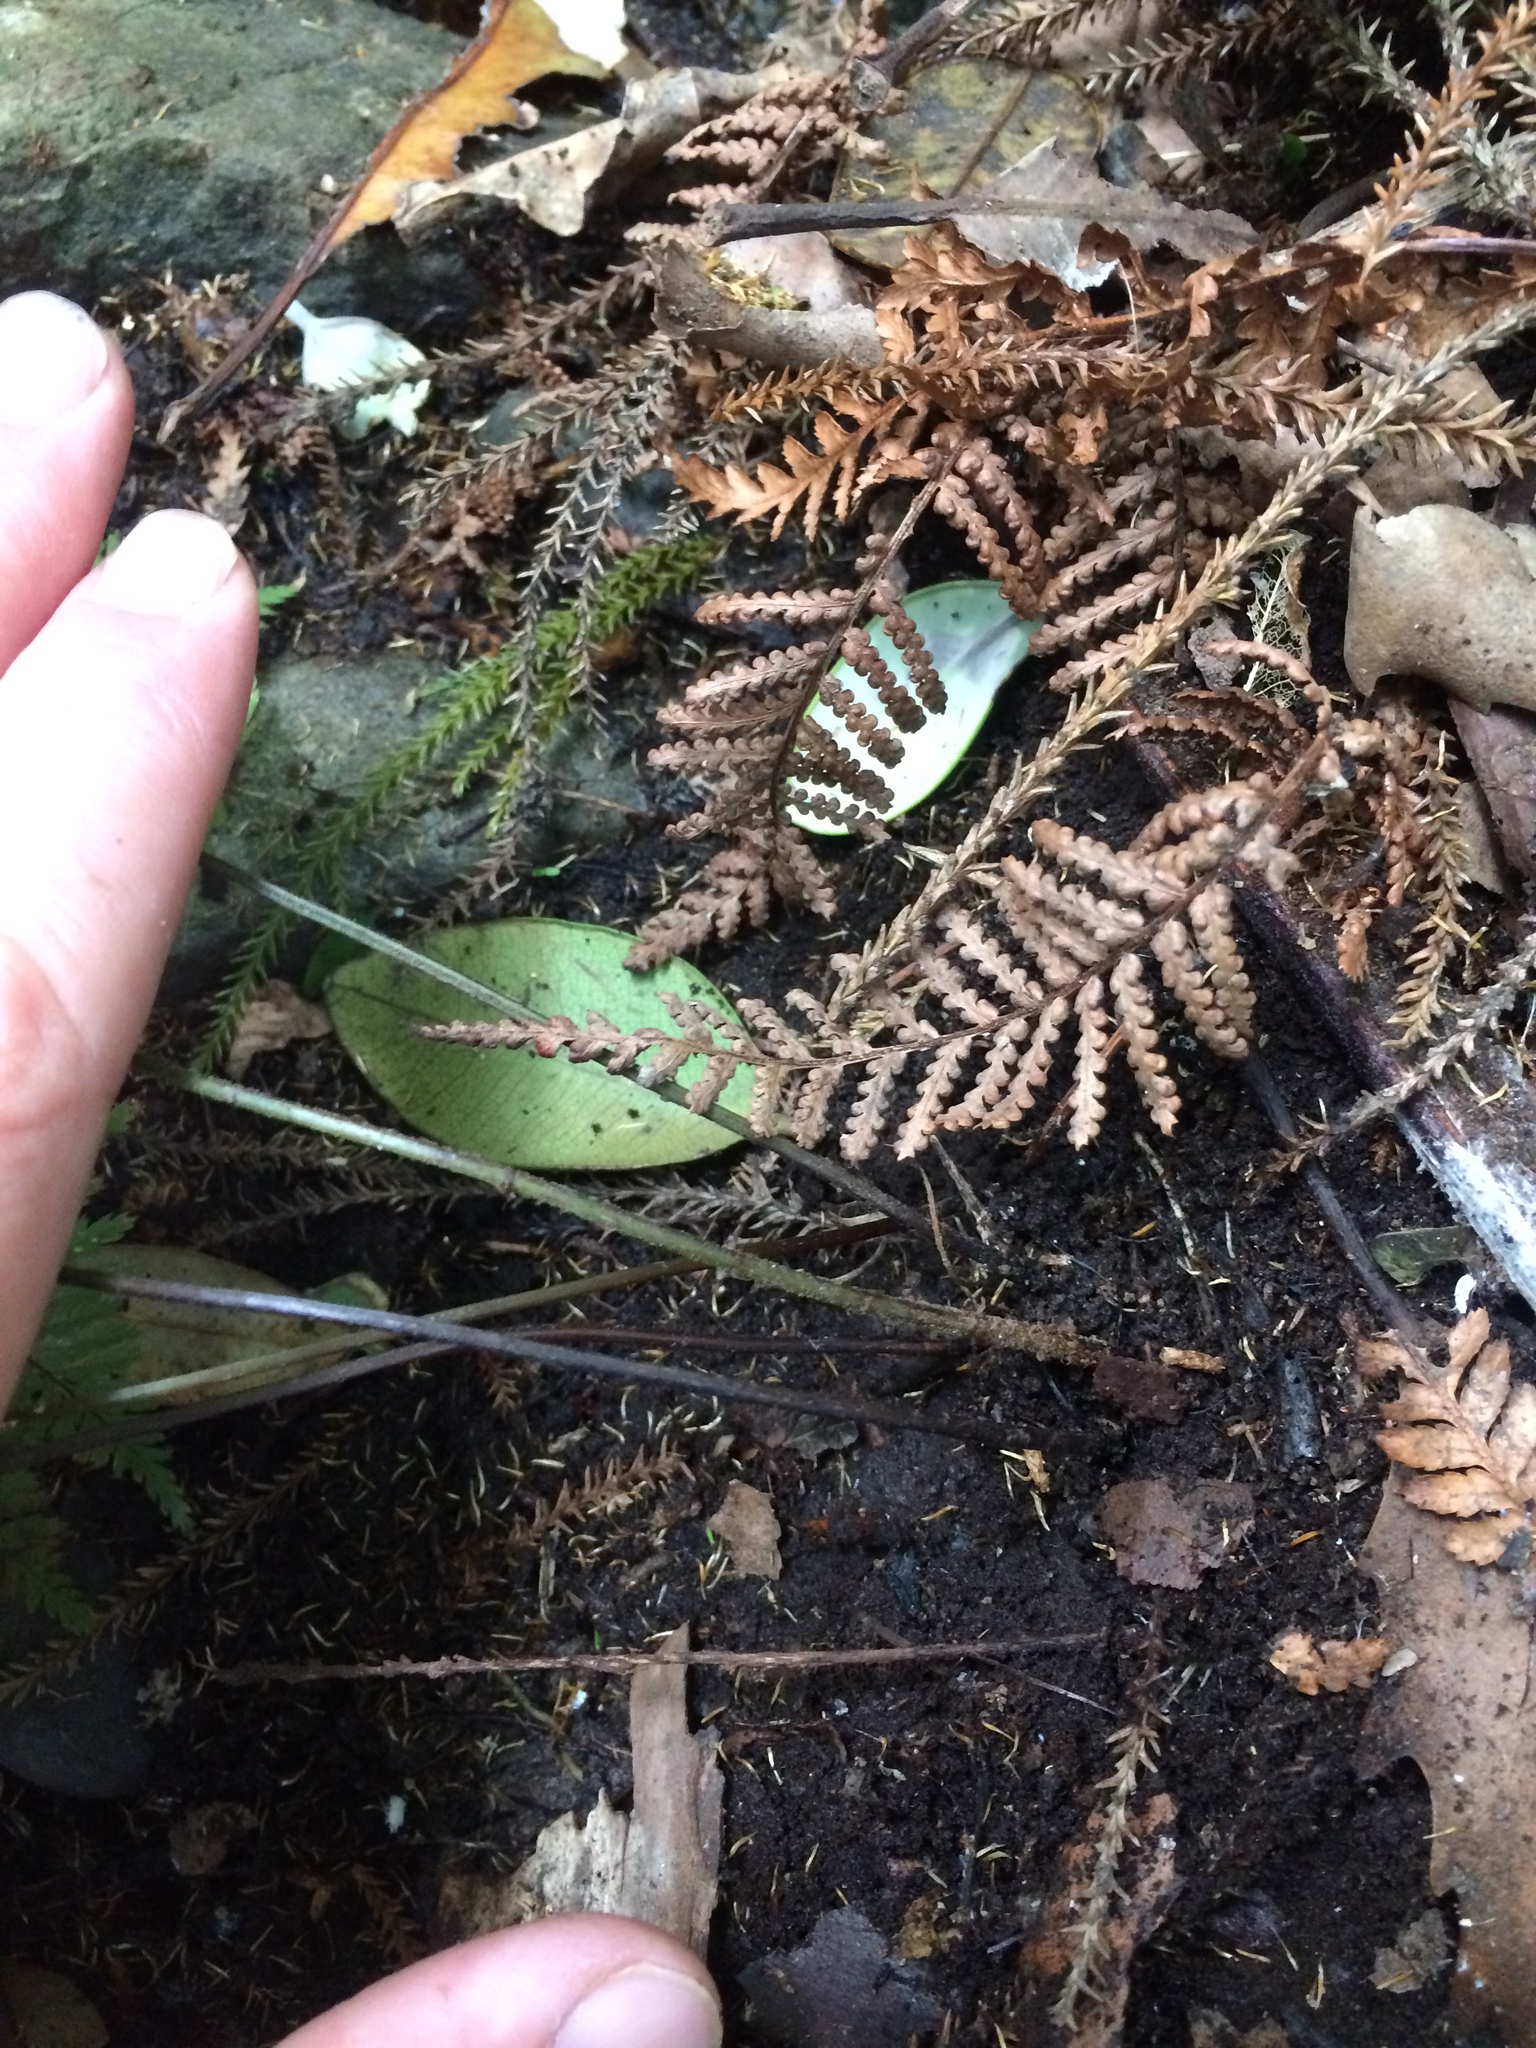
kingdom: Plantae
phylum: Tracheophyta
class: Polypodiopsida
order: Polypodiales
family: Dryopteridaceae
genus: Parapolystichum
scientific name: Parapolystichum microsorum
